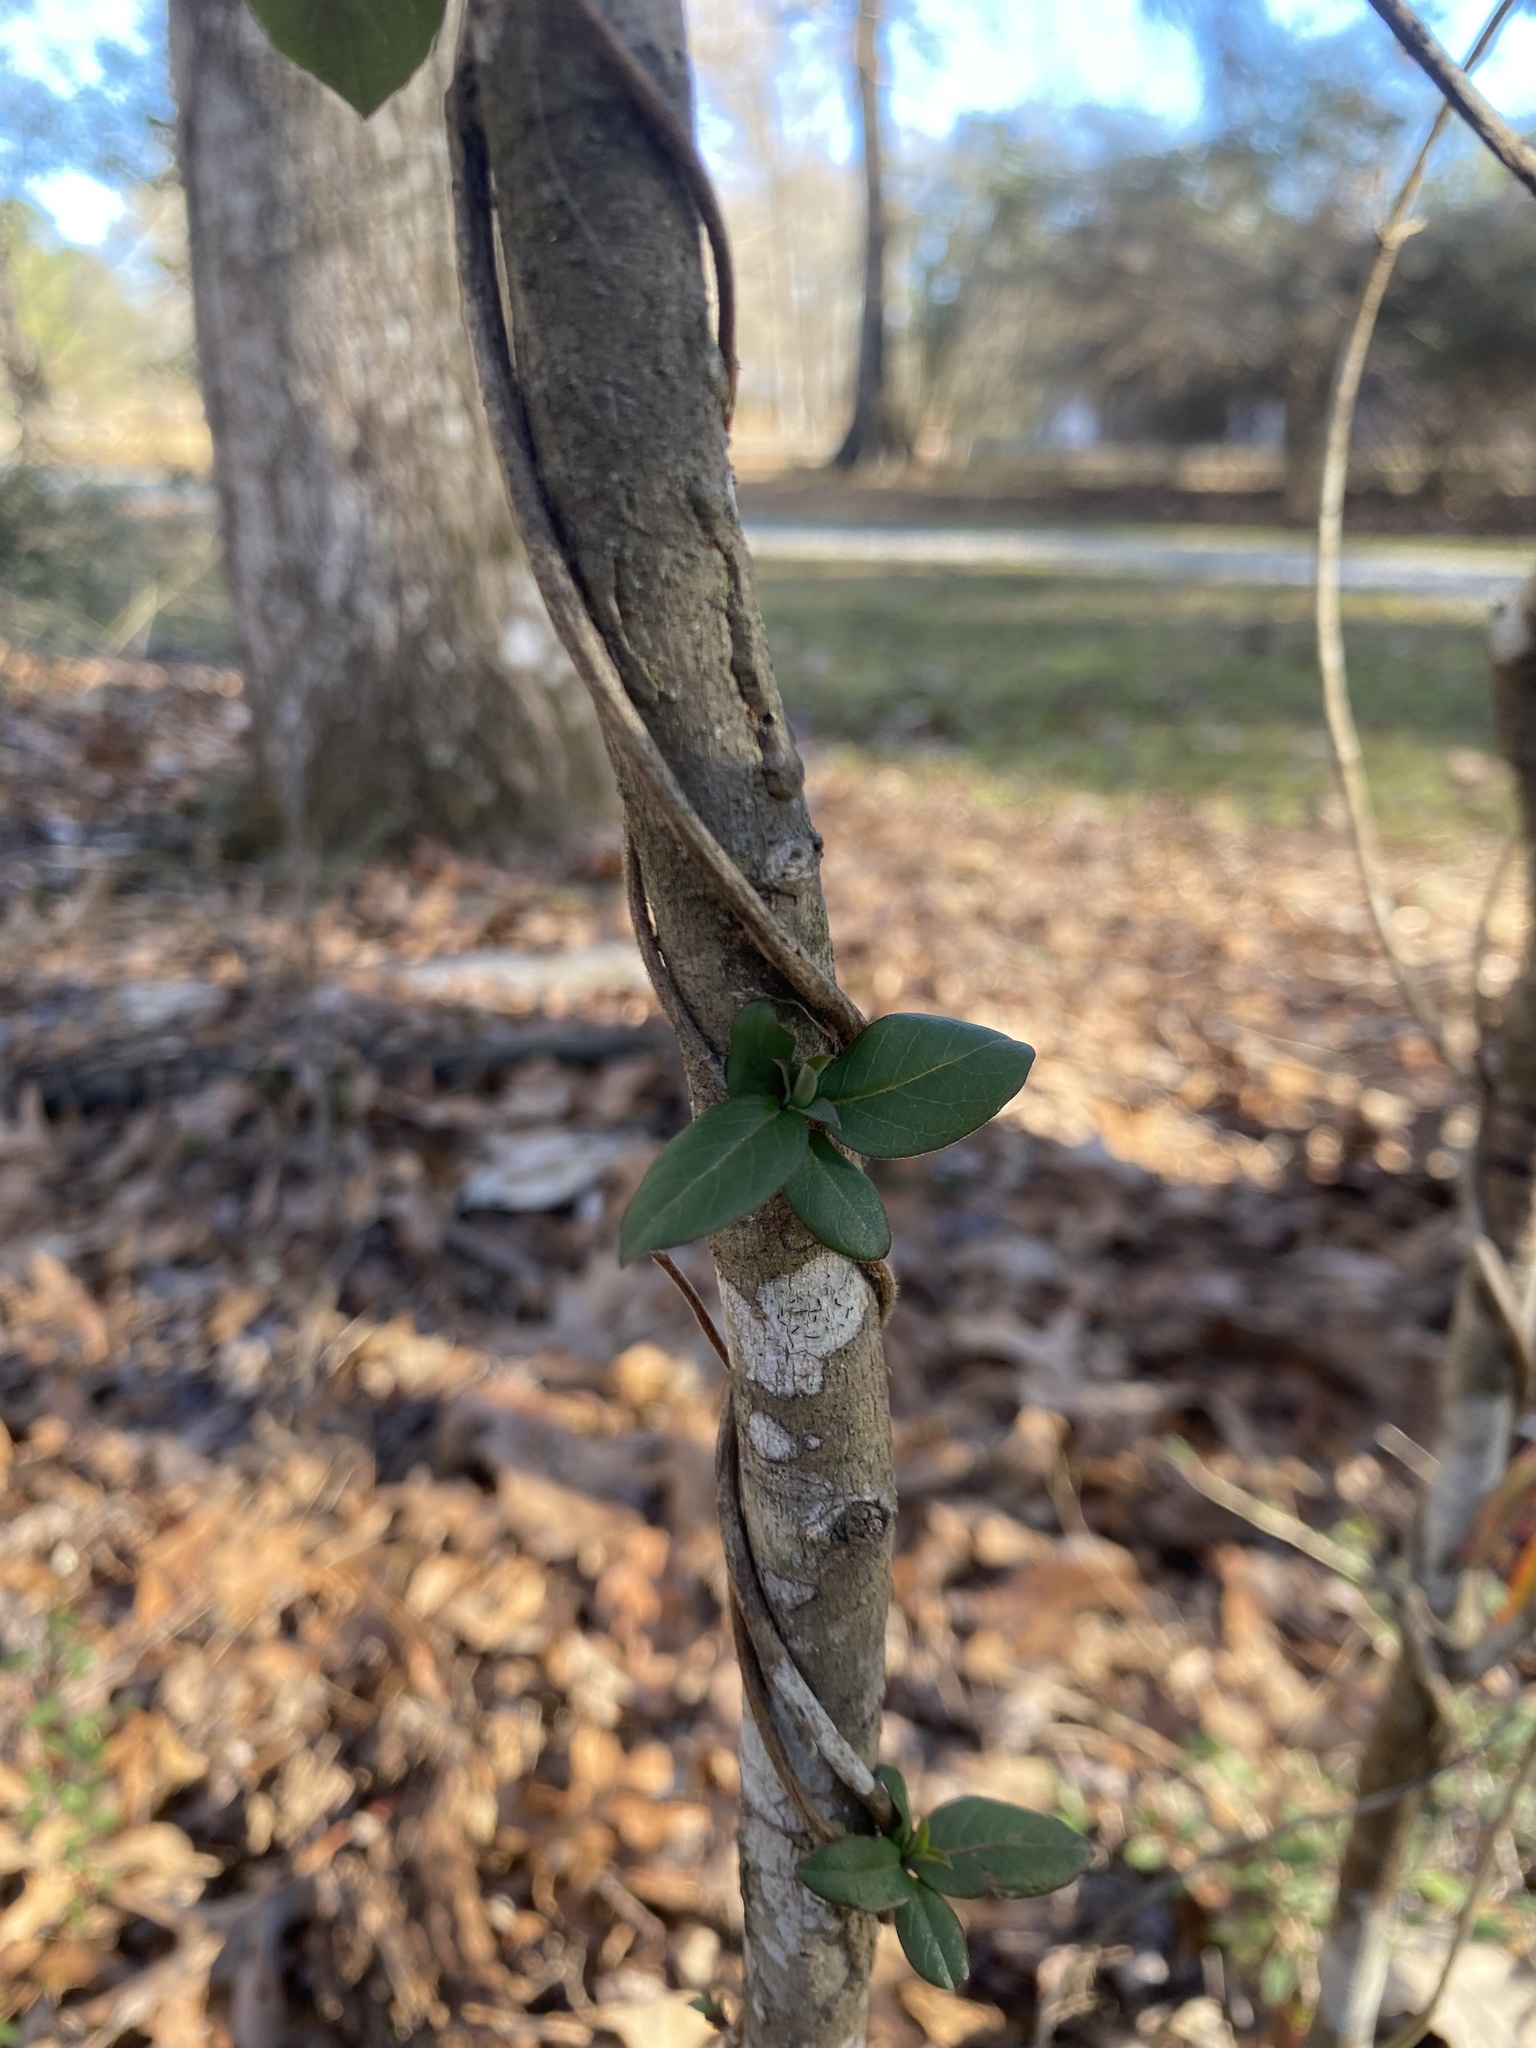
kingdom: Plantae
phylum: Tracheophyta
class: Magnoliopsida
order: Dipsacales
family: Caprifoliaceae
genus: Lonicera
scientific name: Lonicera japonica
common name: Japanese honeysuckle
